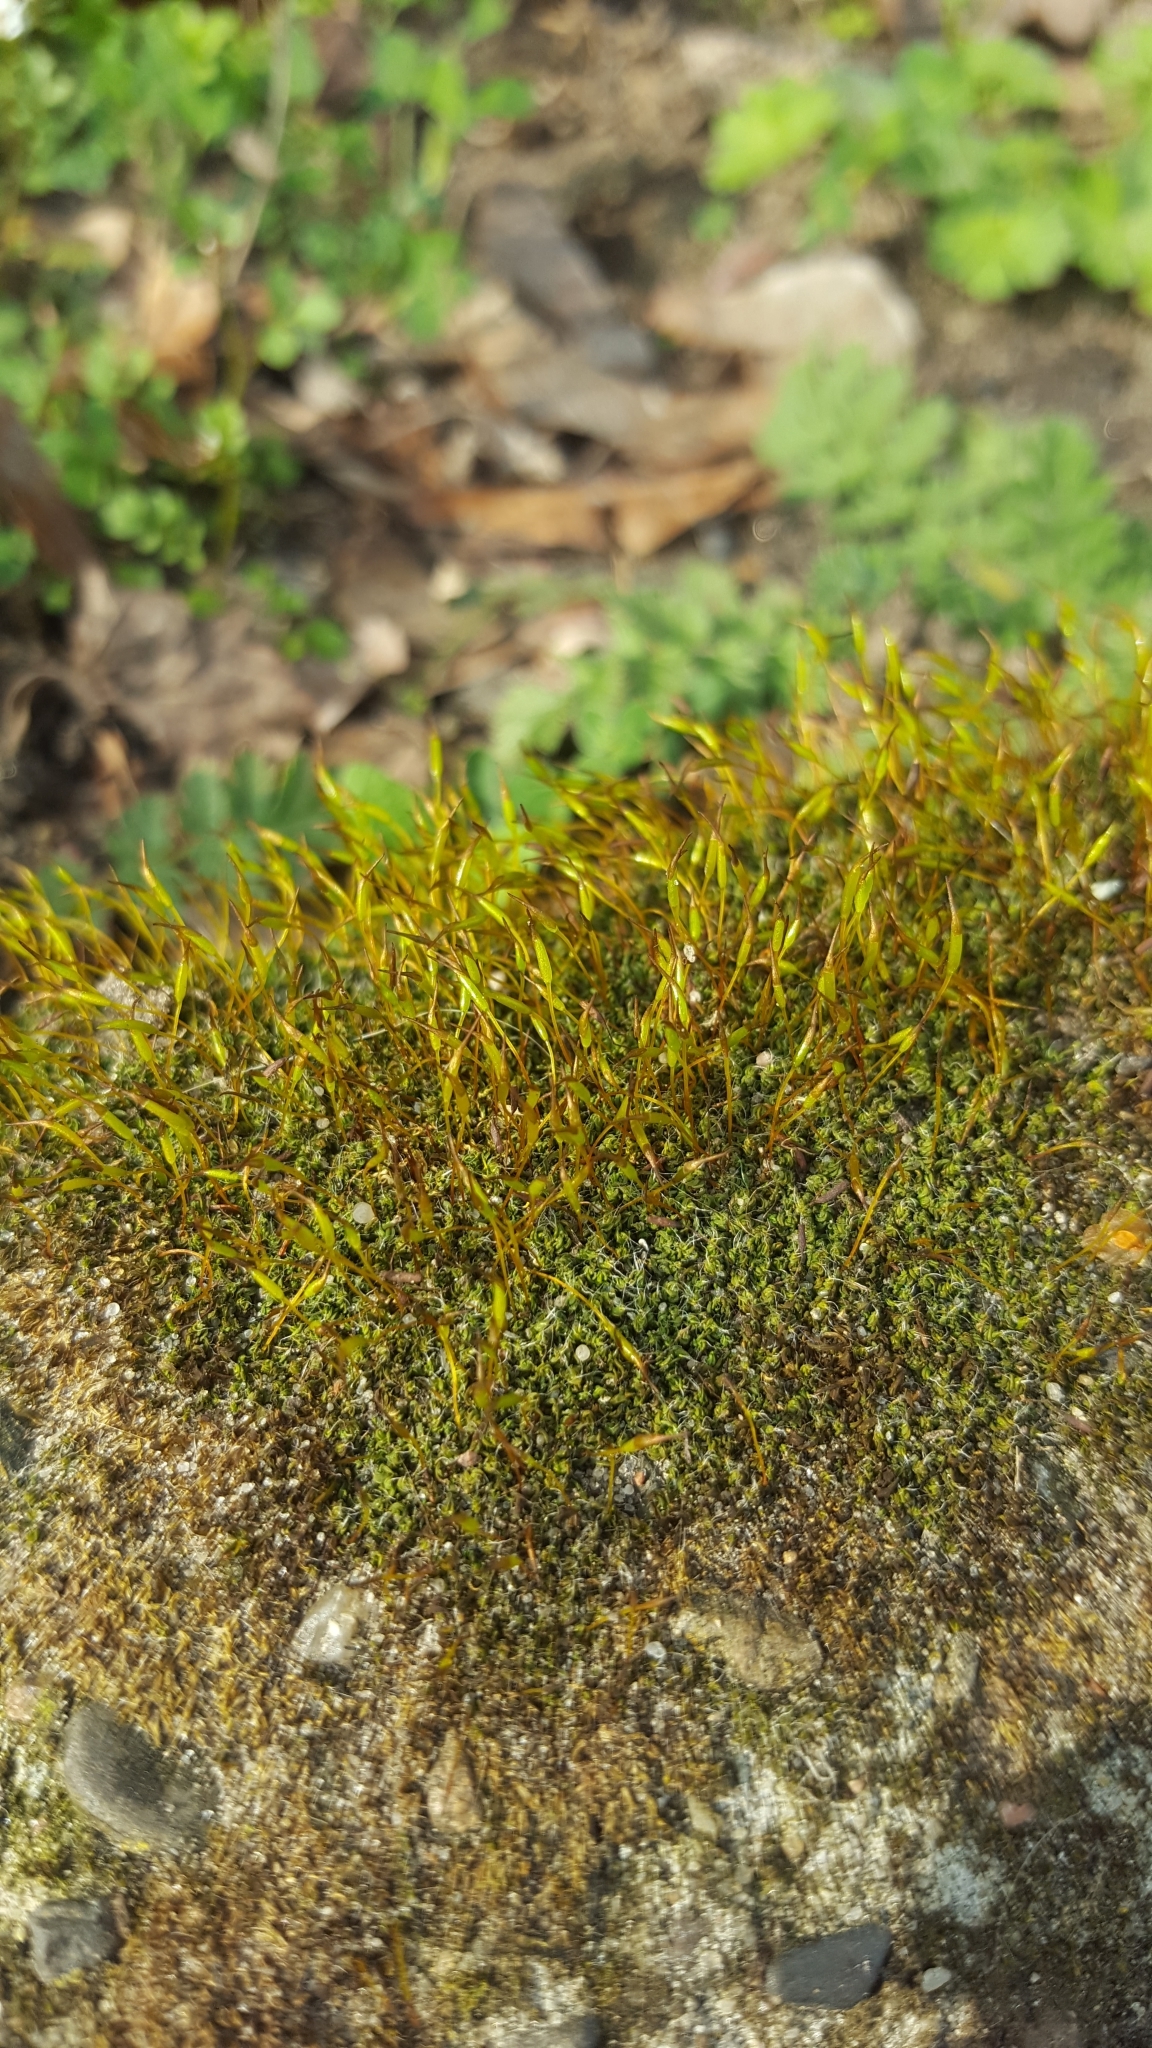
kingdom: Plantae
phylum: Bryophyta
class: Bryopsida
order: Pottiales
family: Pottiaceae
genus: Tortula
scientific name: Tortula muralis
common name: Wall screw-moss
